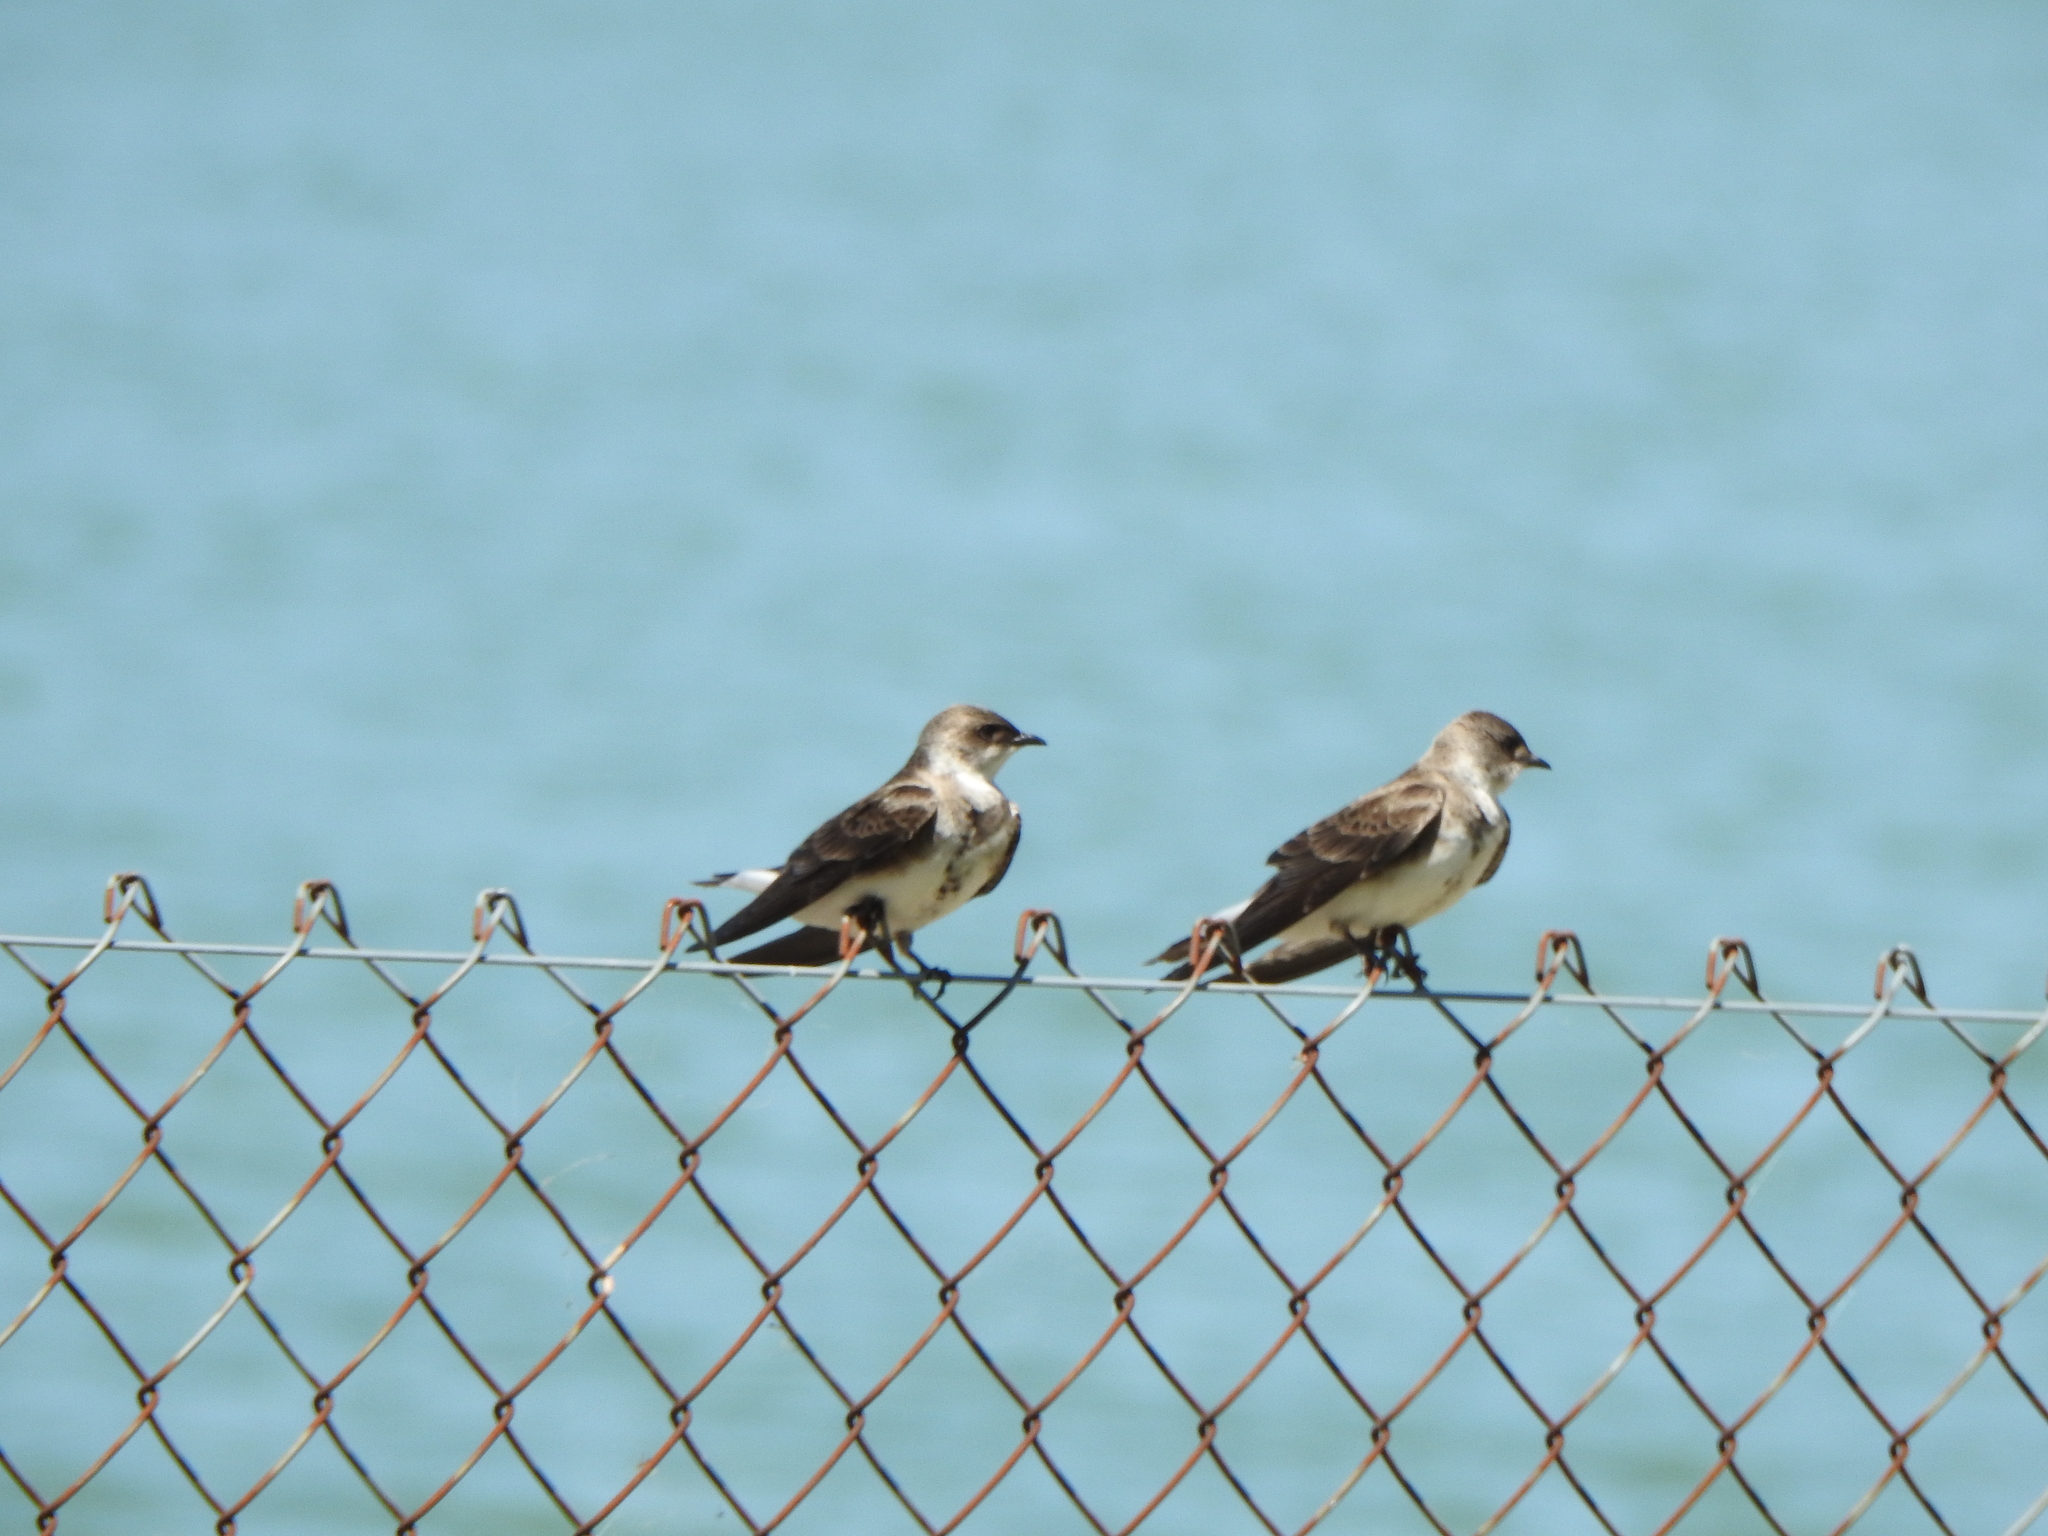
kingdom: Animalia
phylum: Chordata
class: Aves
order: Passeriformes
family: Hirundinidae
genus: Progne
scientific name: Progne tapera
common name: Brown-chested martin
